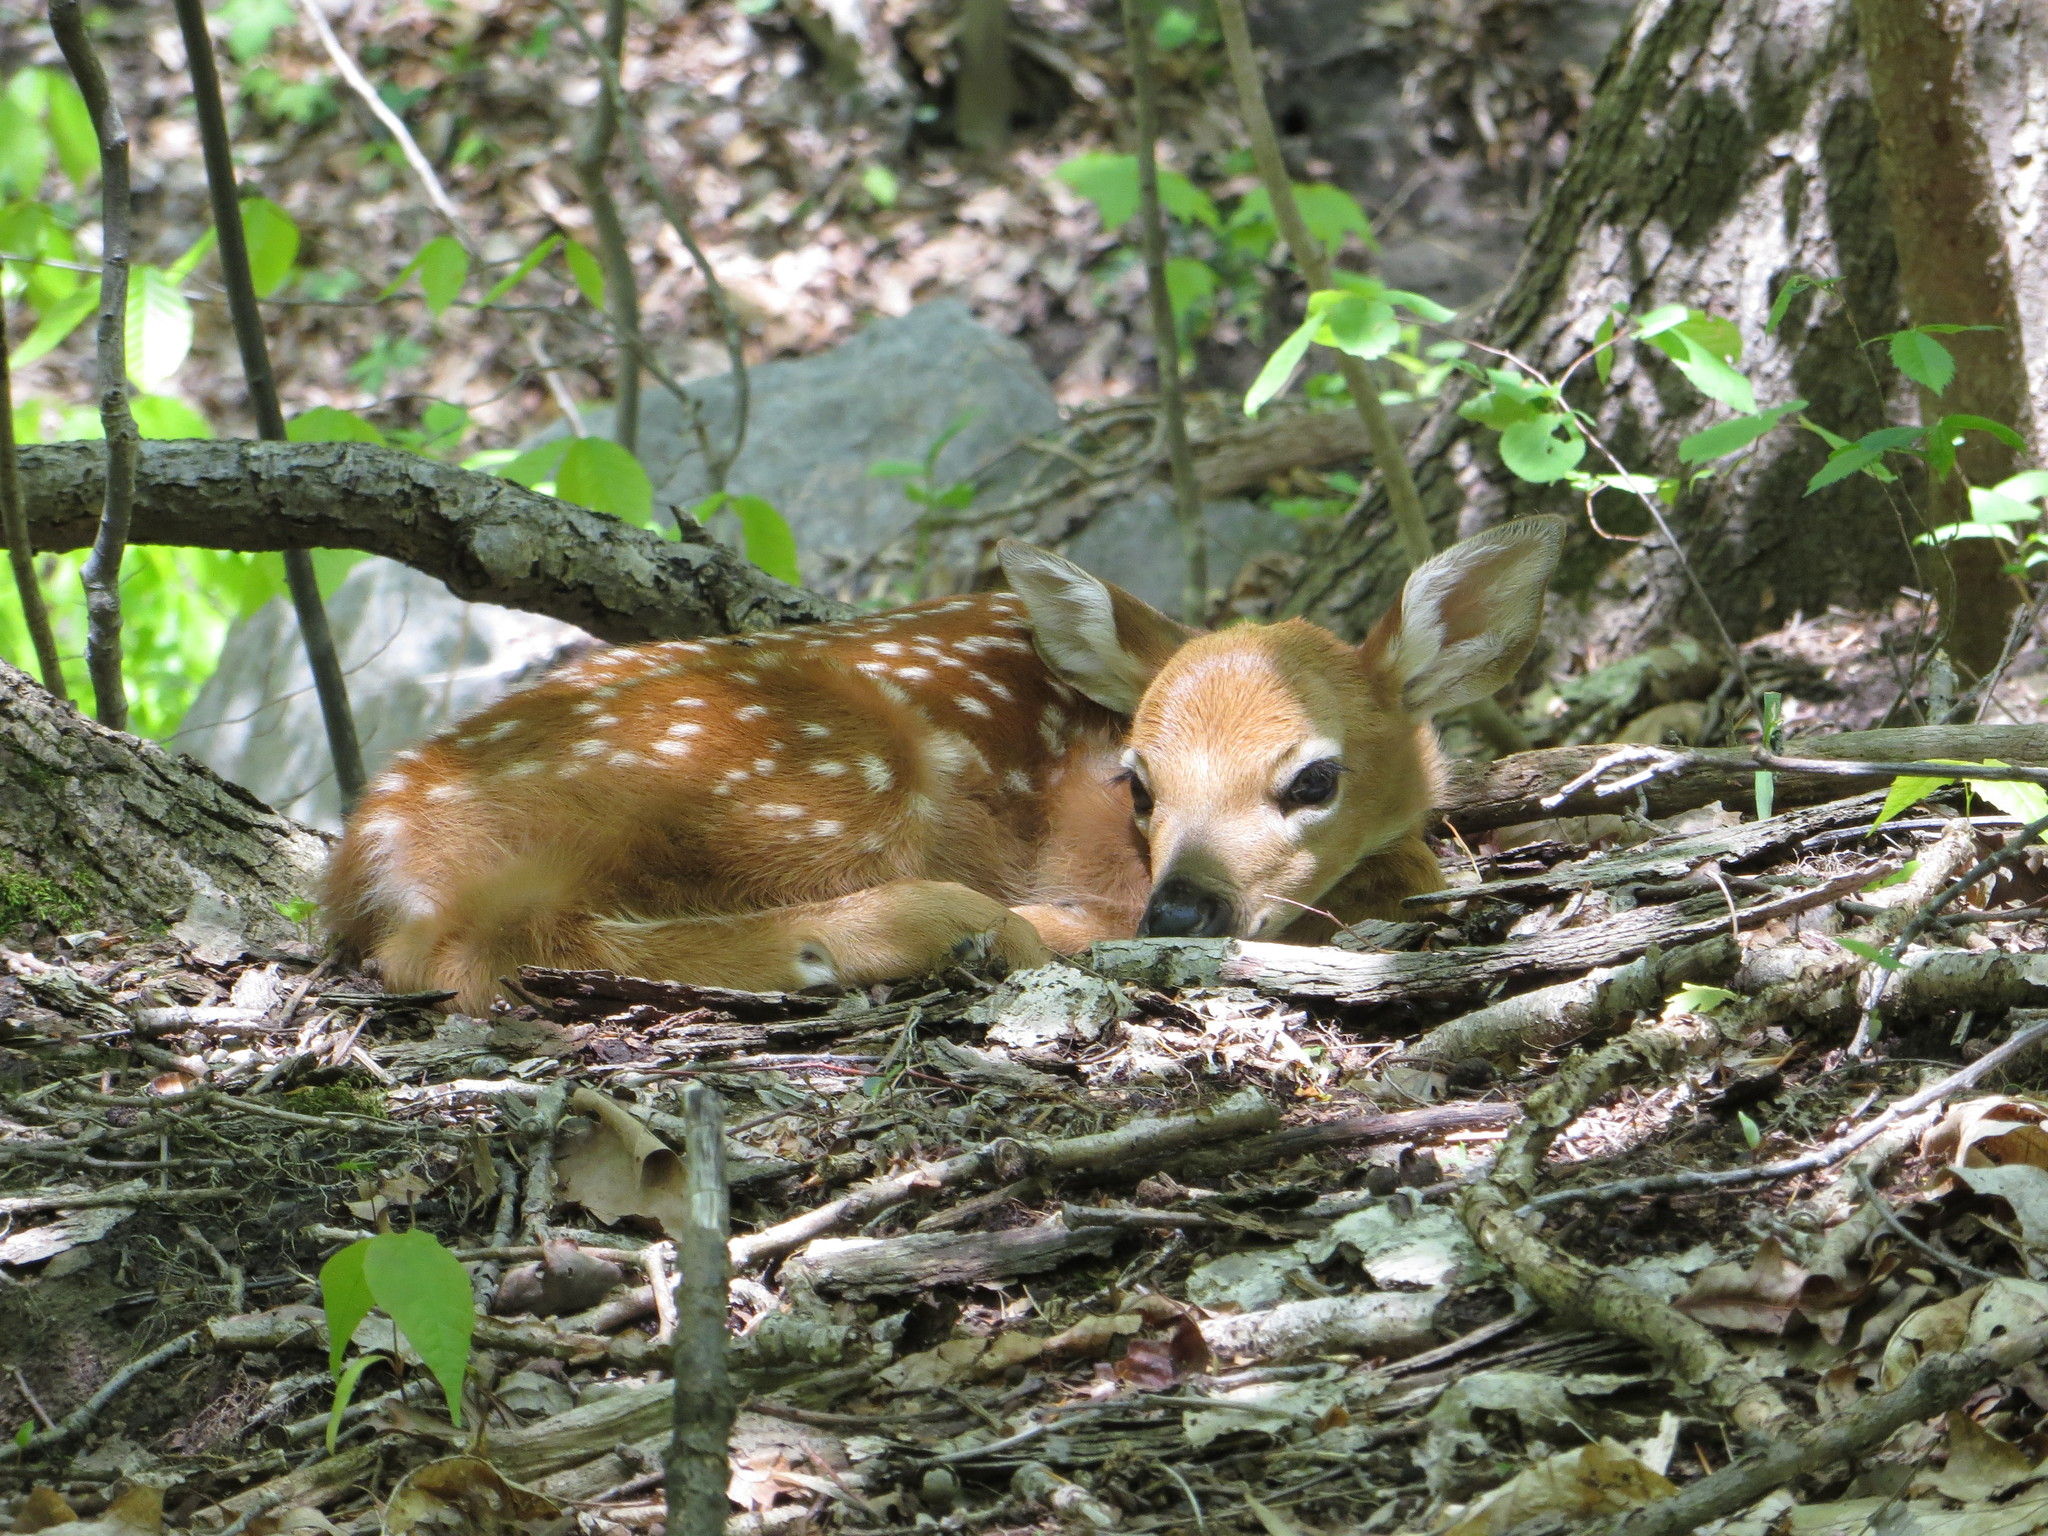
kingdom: Animalia
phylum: Chordata
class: Mammalia
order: Artiodactyla
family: Cervidae
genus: Odocoileus
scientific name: Odocoileus virginianus
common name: White-tailed deer
